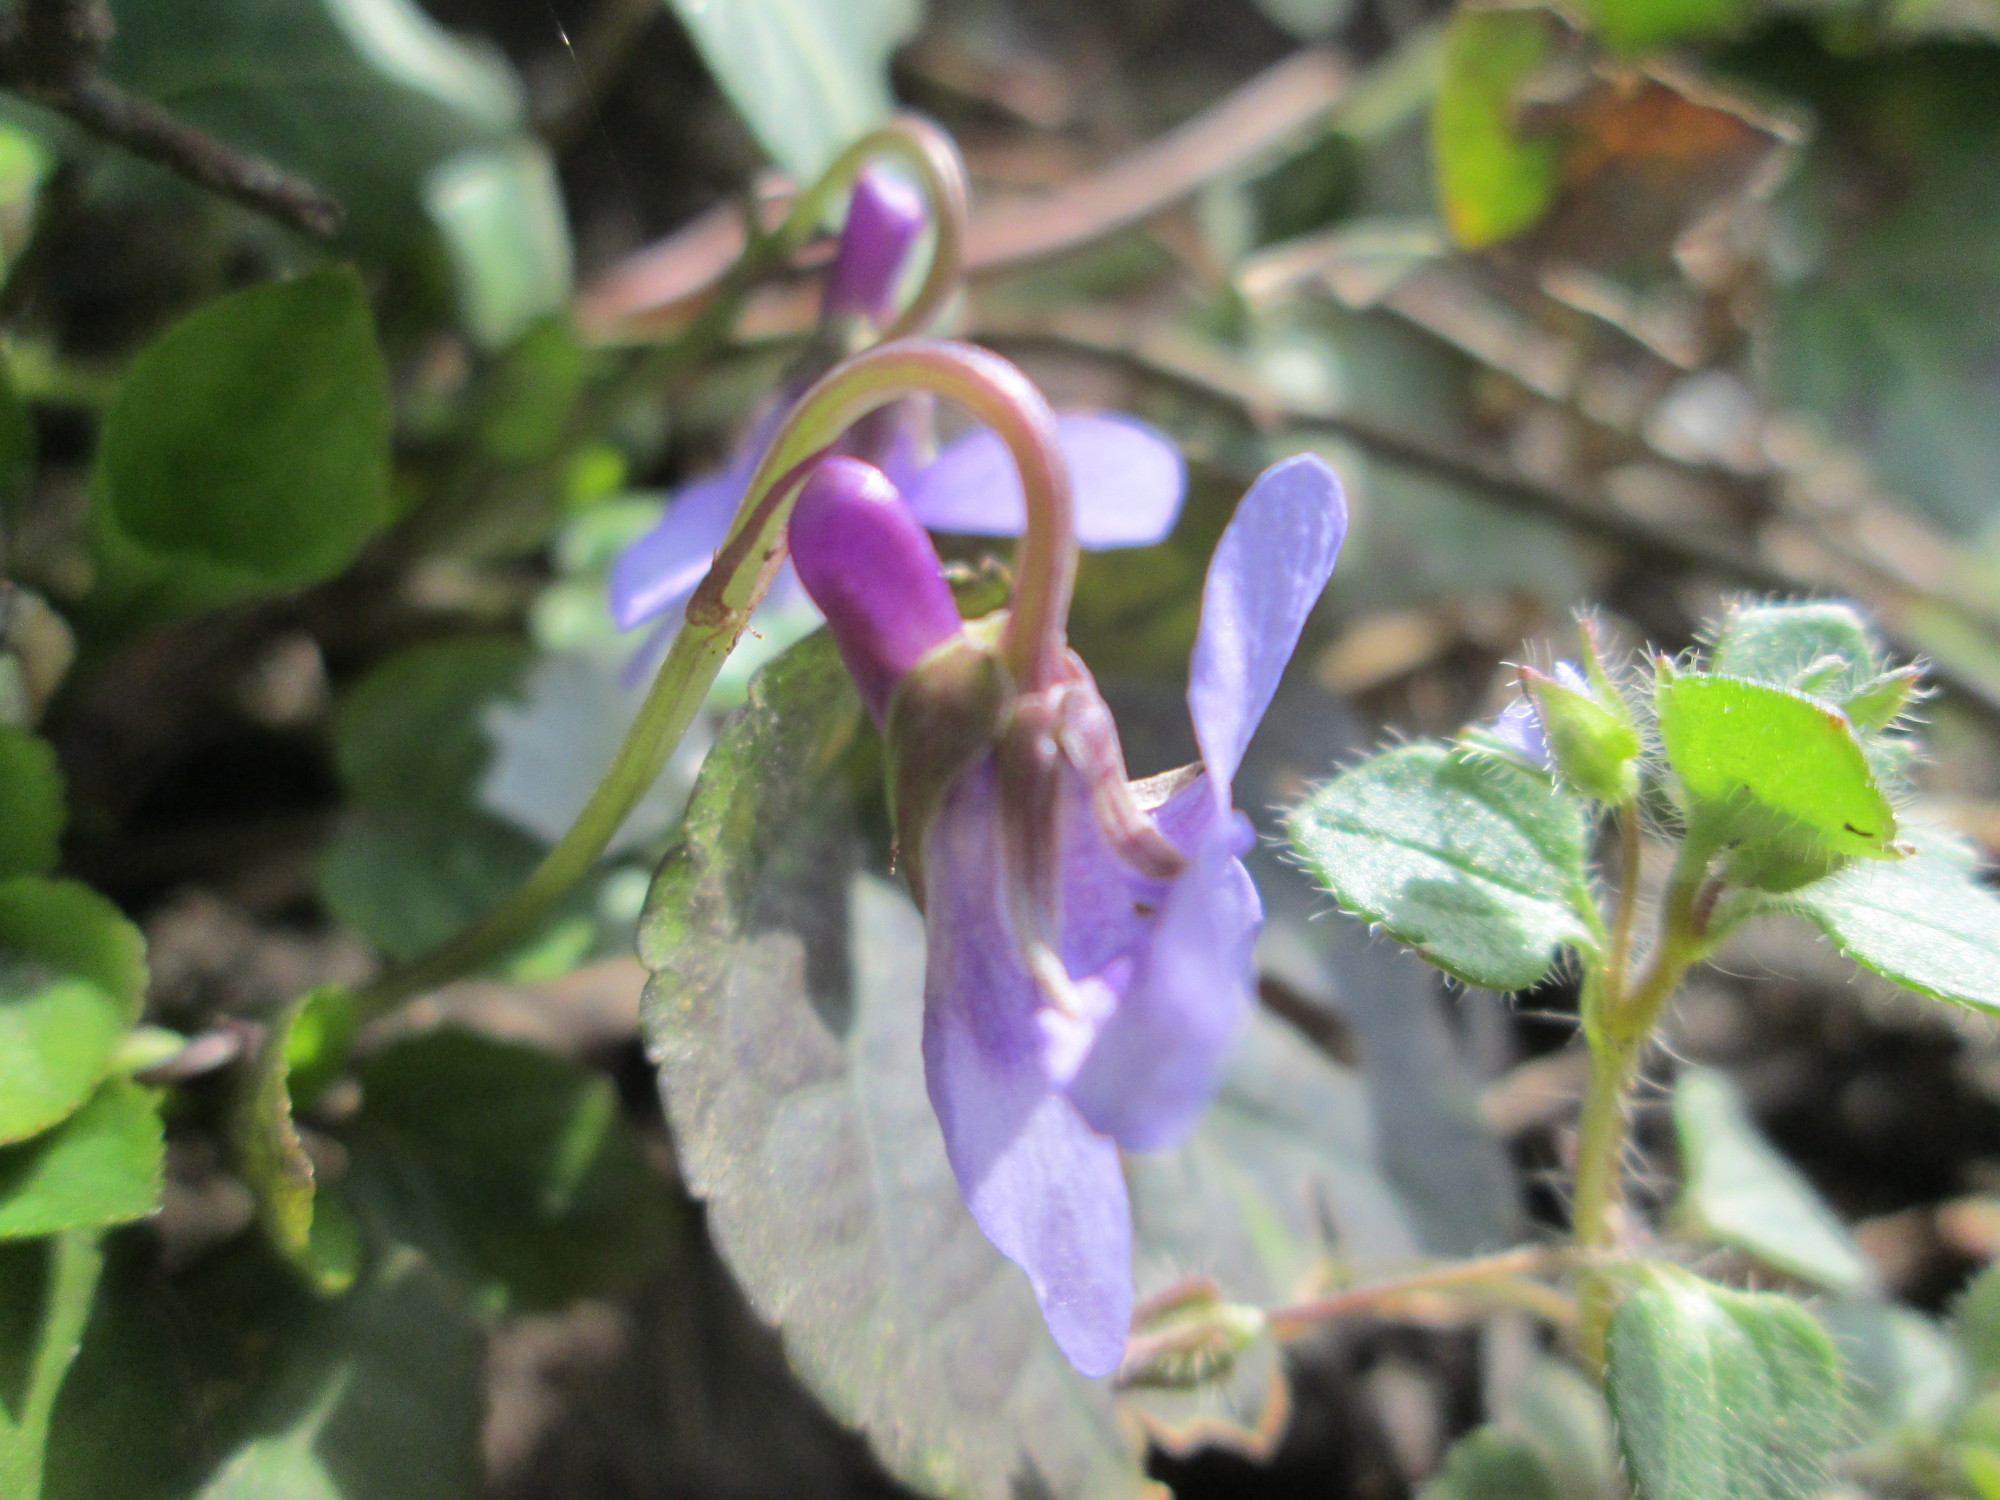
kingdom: Plantae
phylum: Tracheophyta
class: Magnoliopsida
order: Malpighiales
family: Violaceae
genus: Viola
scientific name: Viola odorata
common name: Sweet violet
